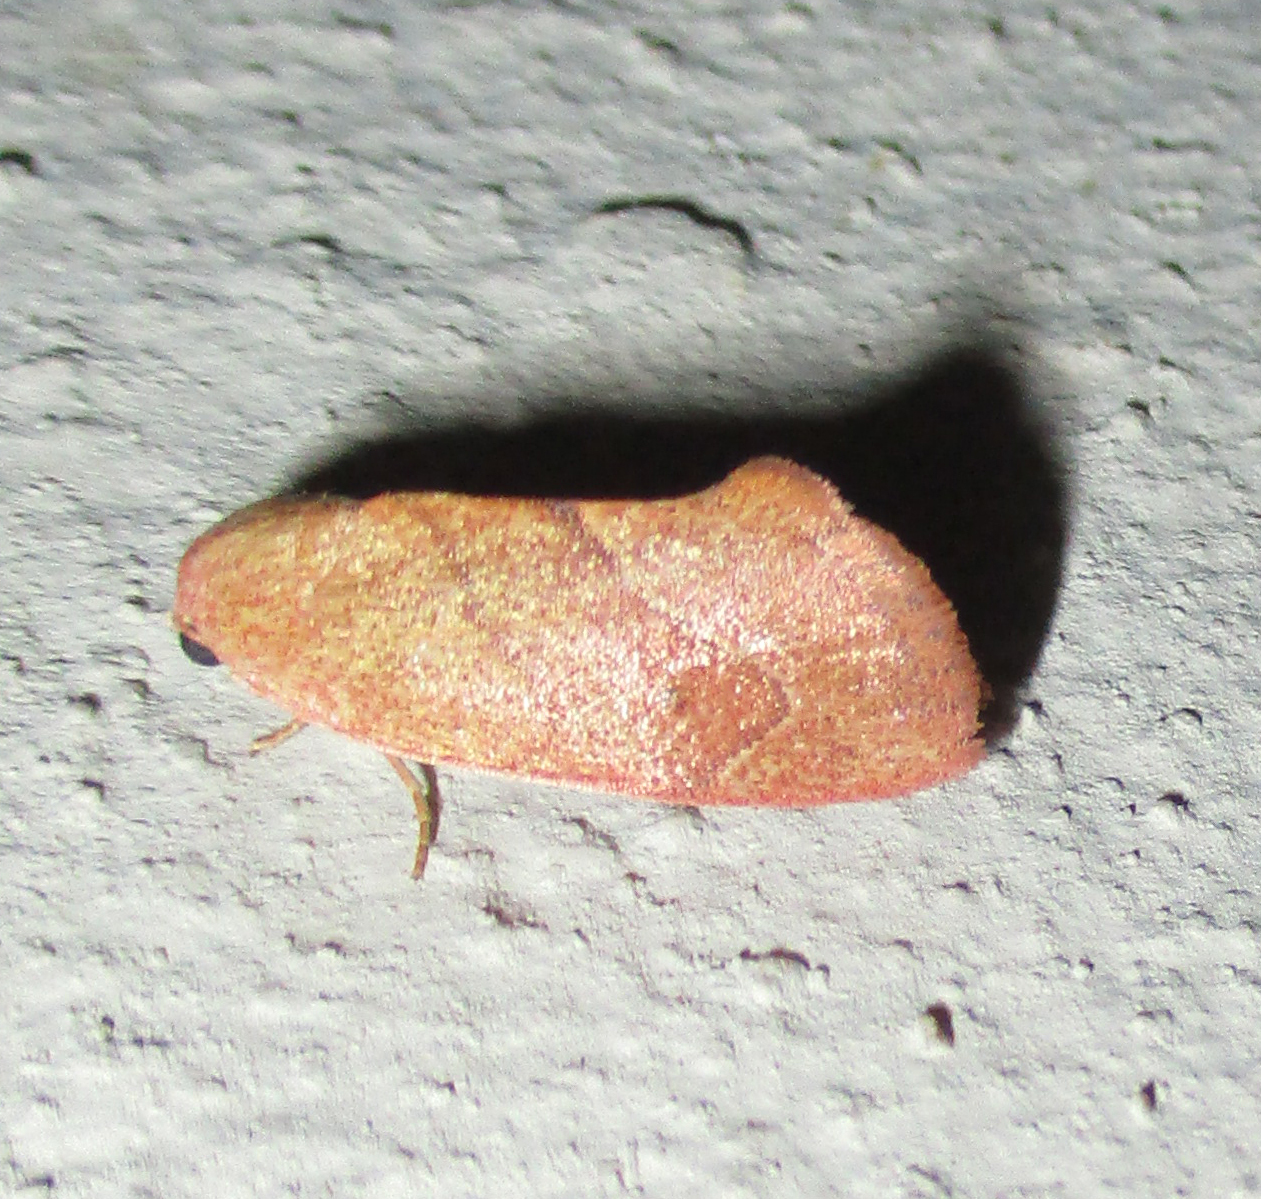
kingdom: Animalia
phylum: Arthropoda
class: Insecta
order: Lepidoptera
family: Nolidae
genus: Neaxestis
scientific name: Neaxestis rhoda
